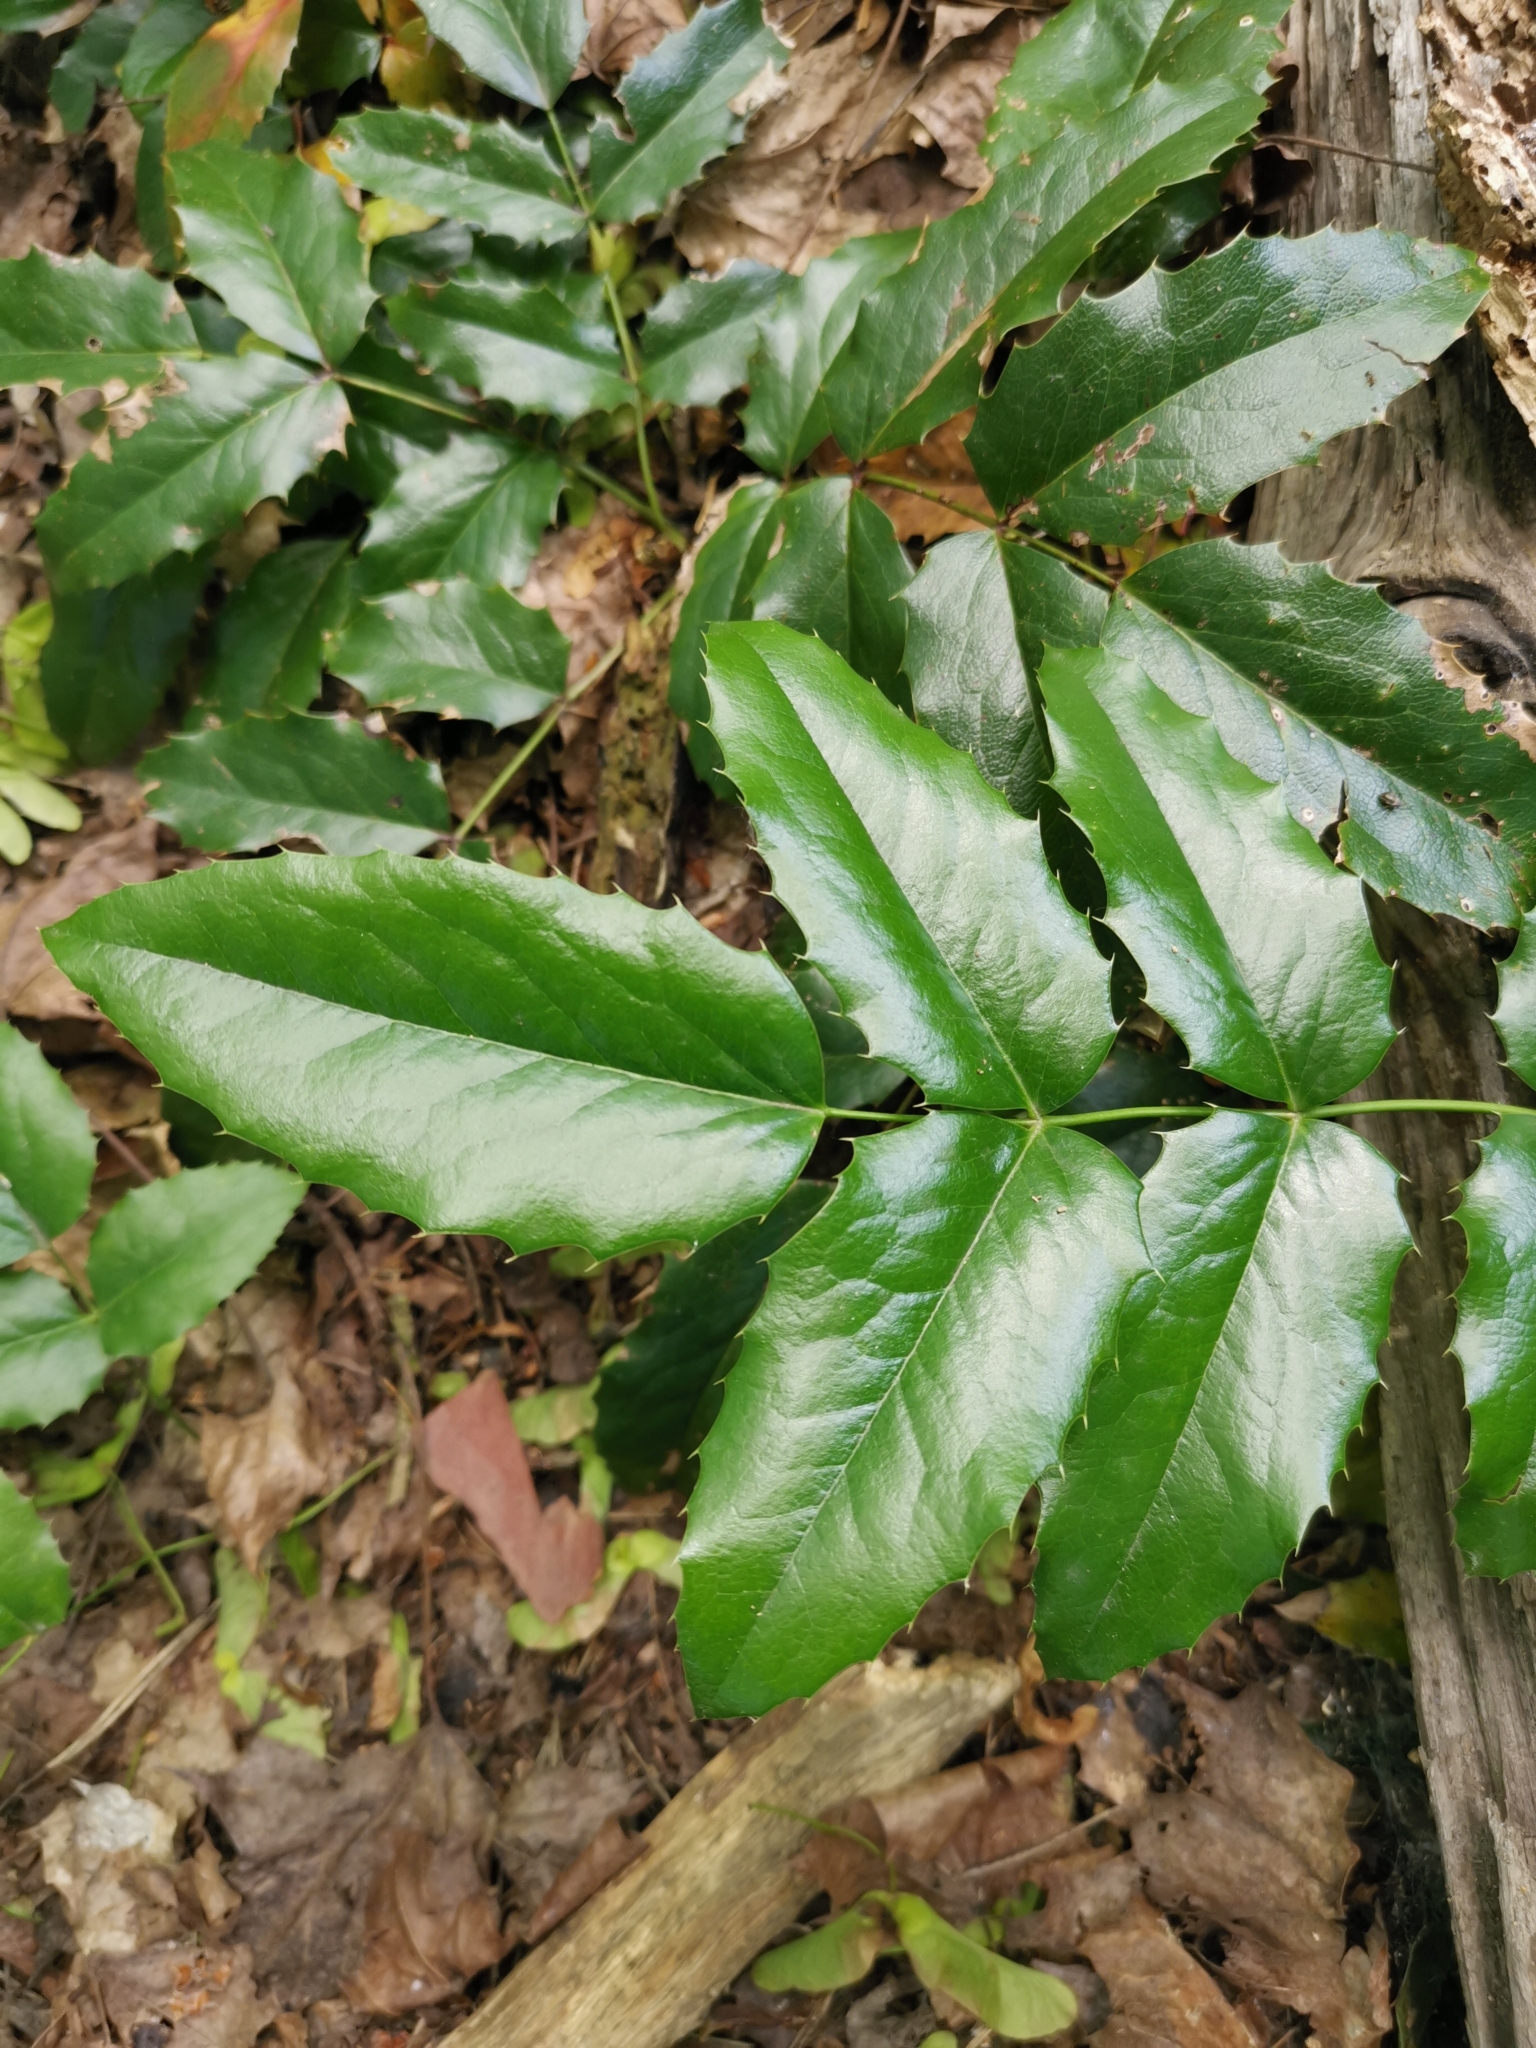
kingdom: Plantae
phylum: Tracheophyta
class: Magnoliopsida
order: Ranunculales
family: Berberidaceae
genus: Mahonia
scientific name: Mahonia aquifolium
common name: Oregon-grape
